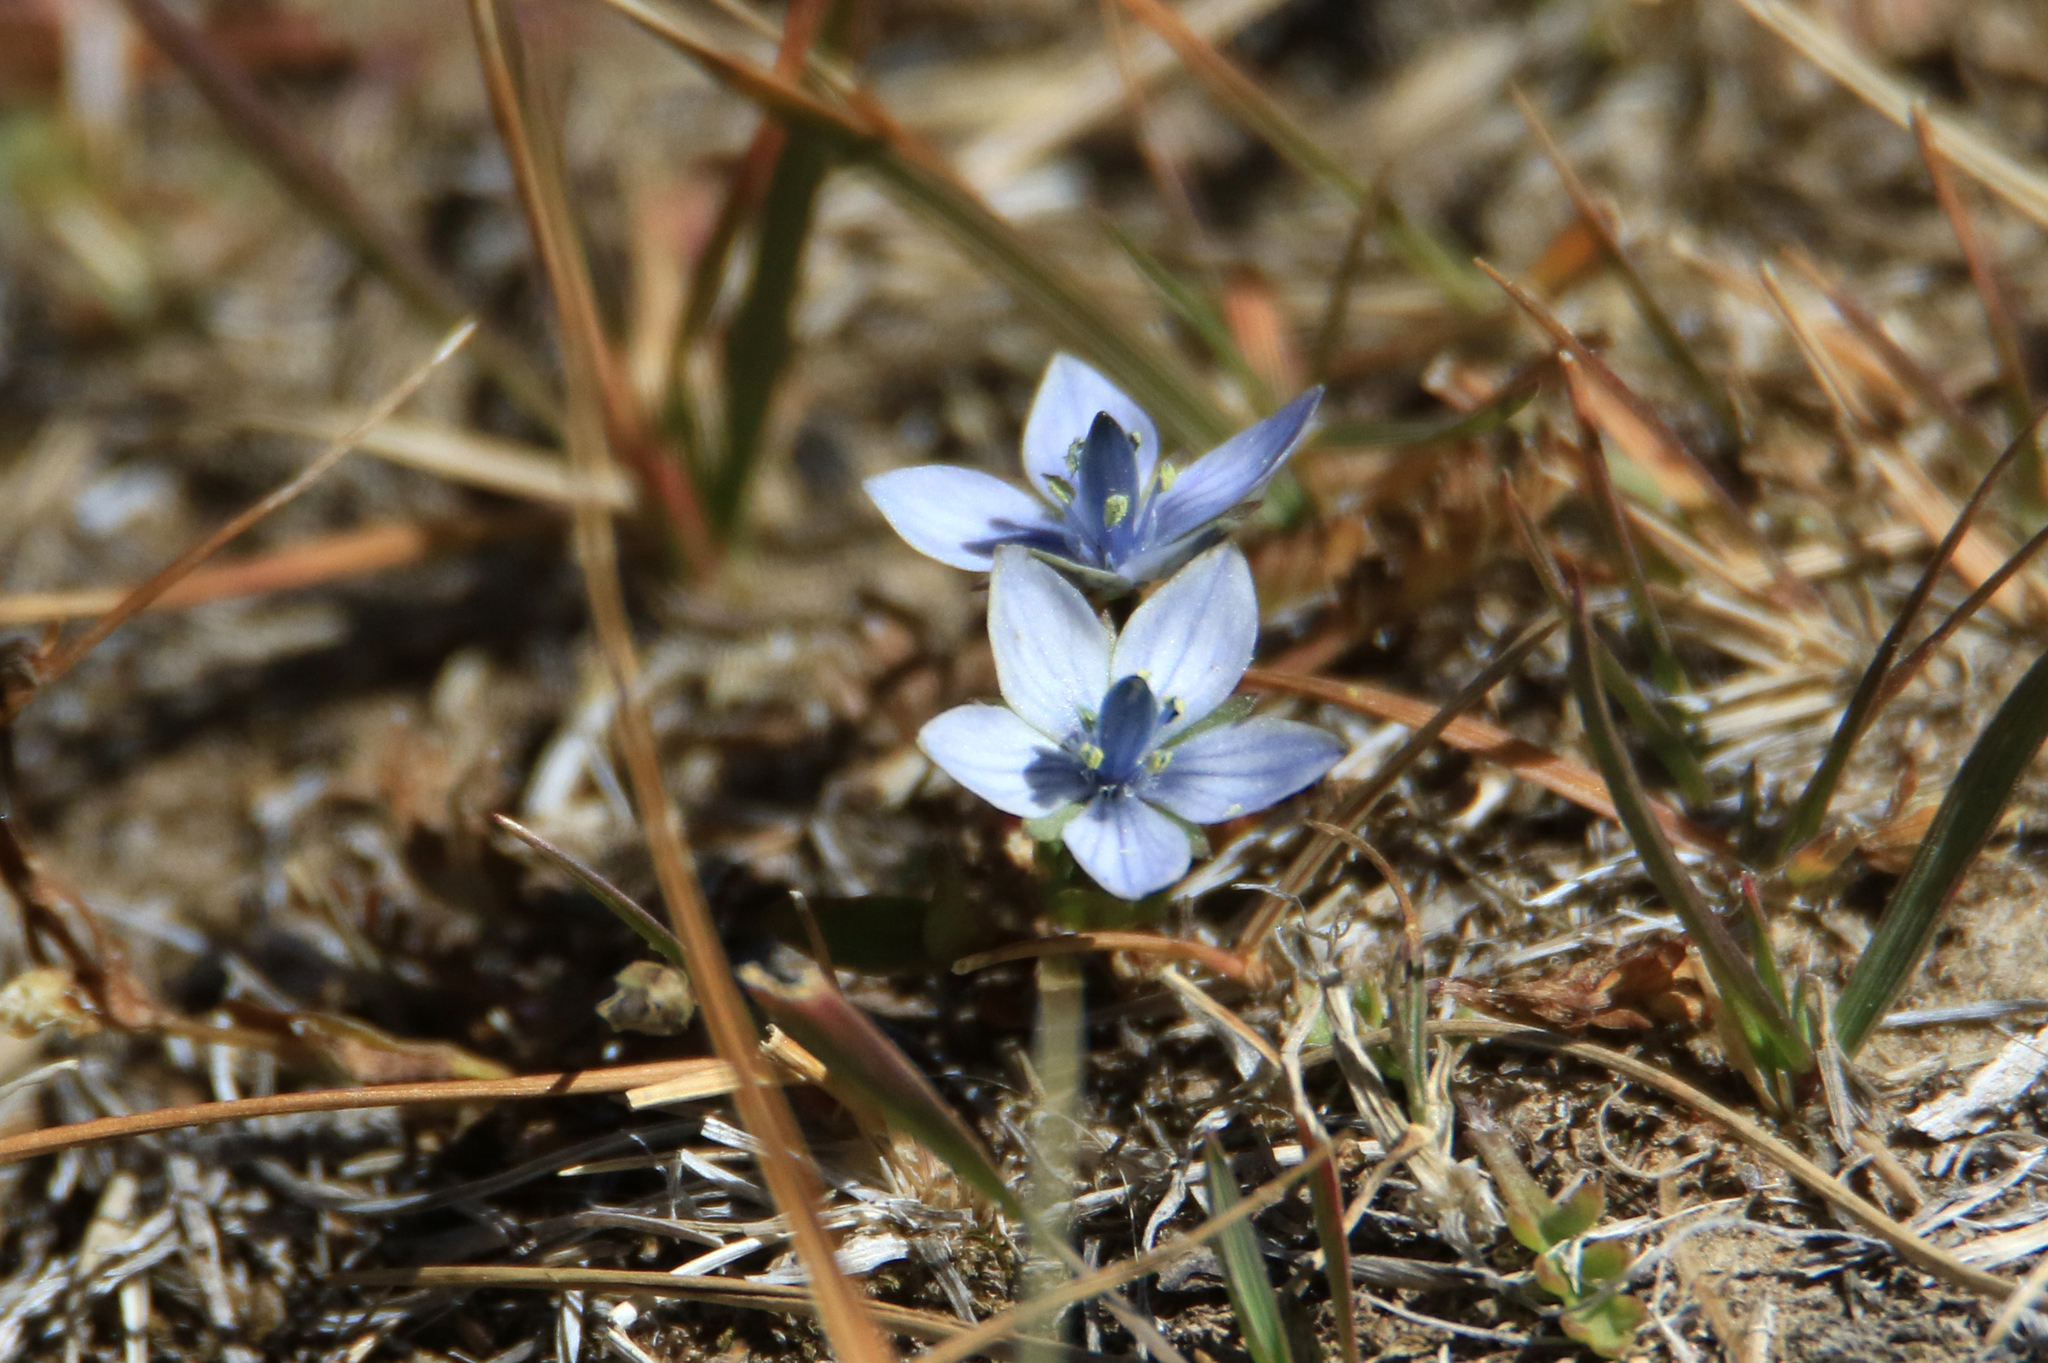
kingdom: Plantae
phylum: Tracheophyta
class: Magnoliopsida
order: Gentianales
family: Gentianaceae
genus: Lomatogonium
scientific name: Lomatogonium carinthiacum
